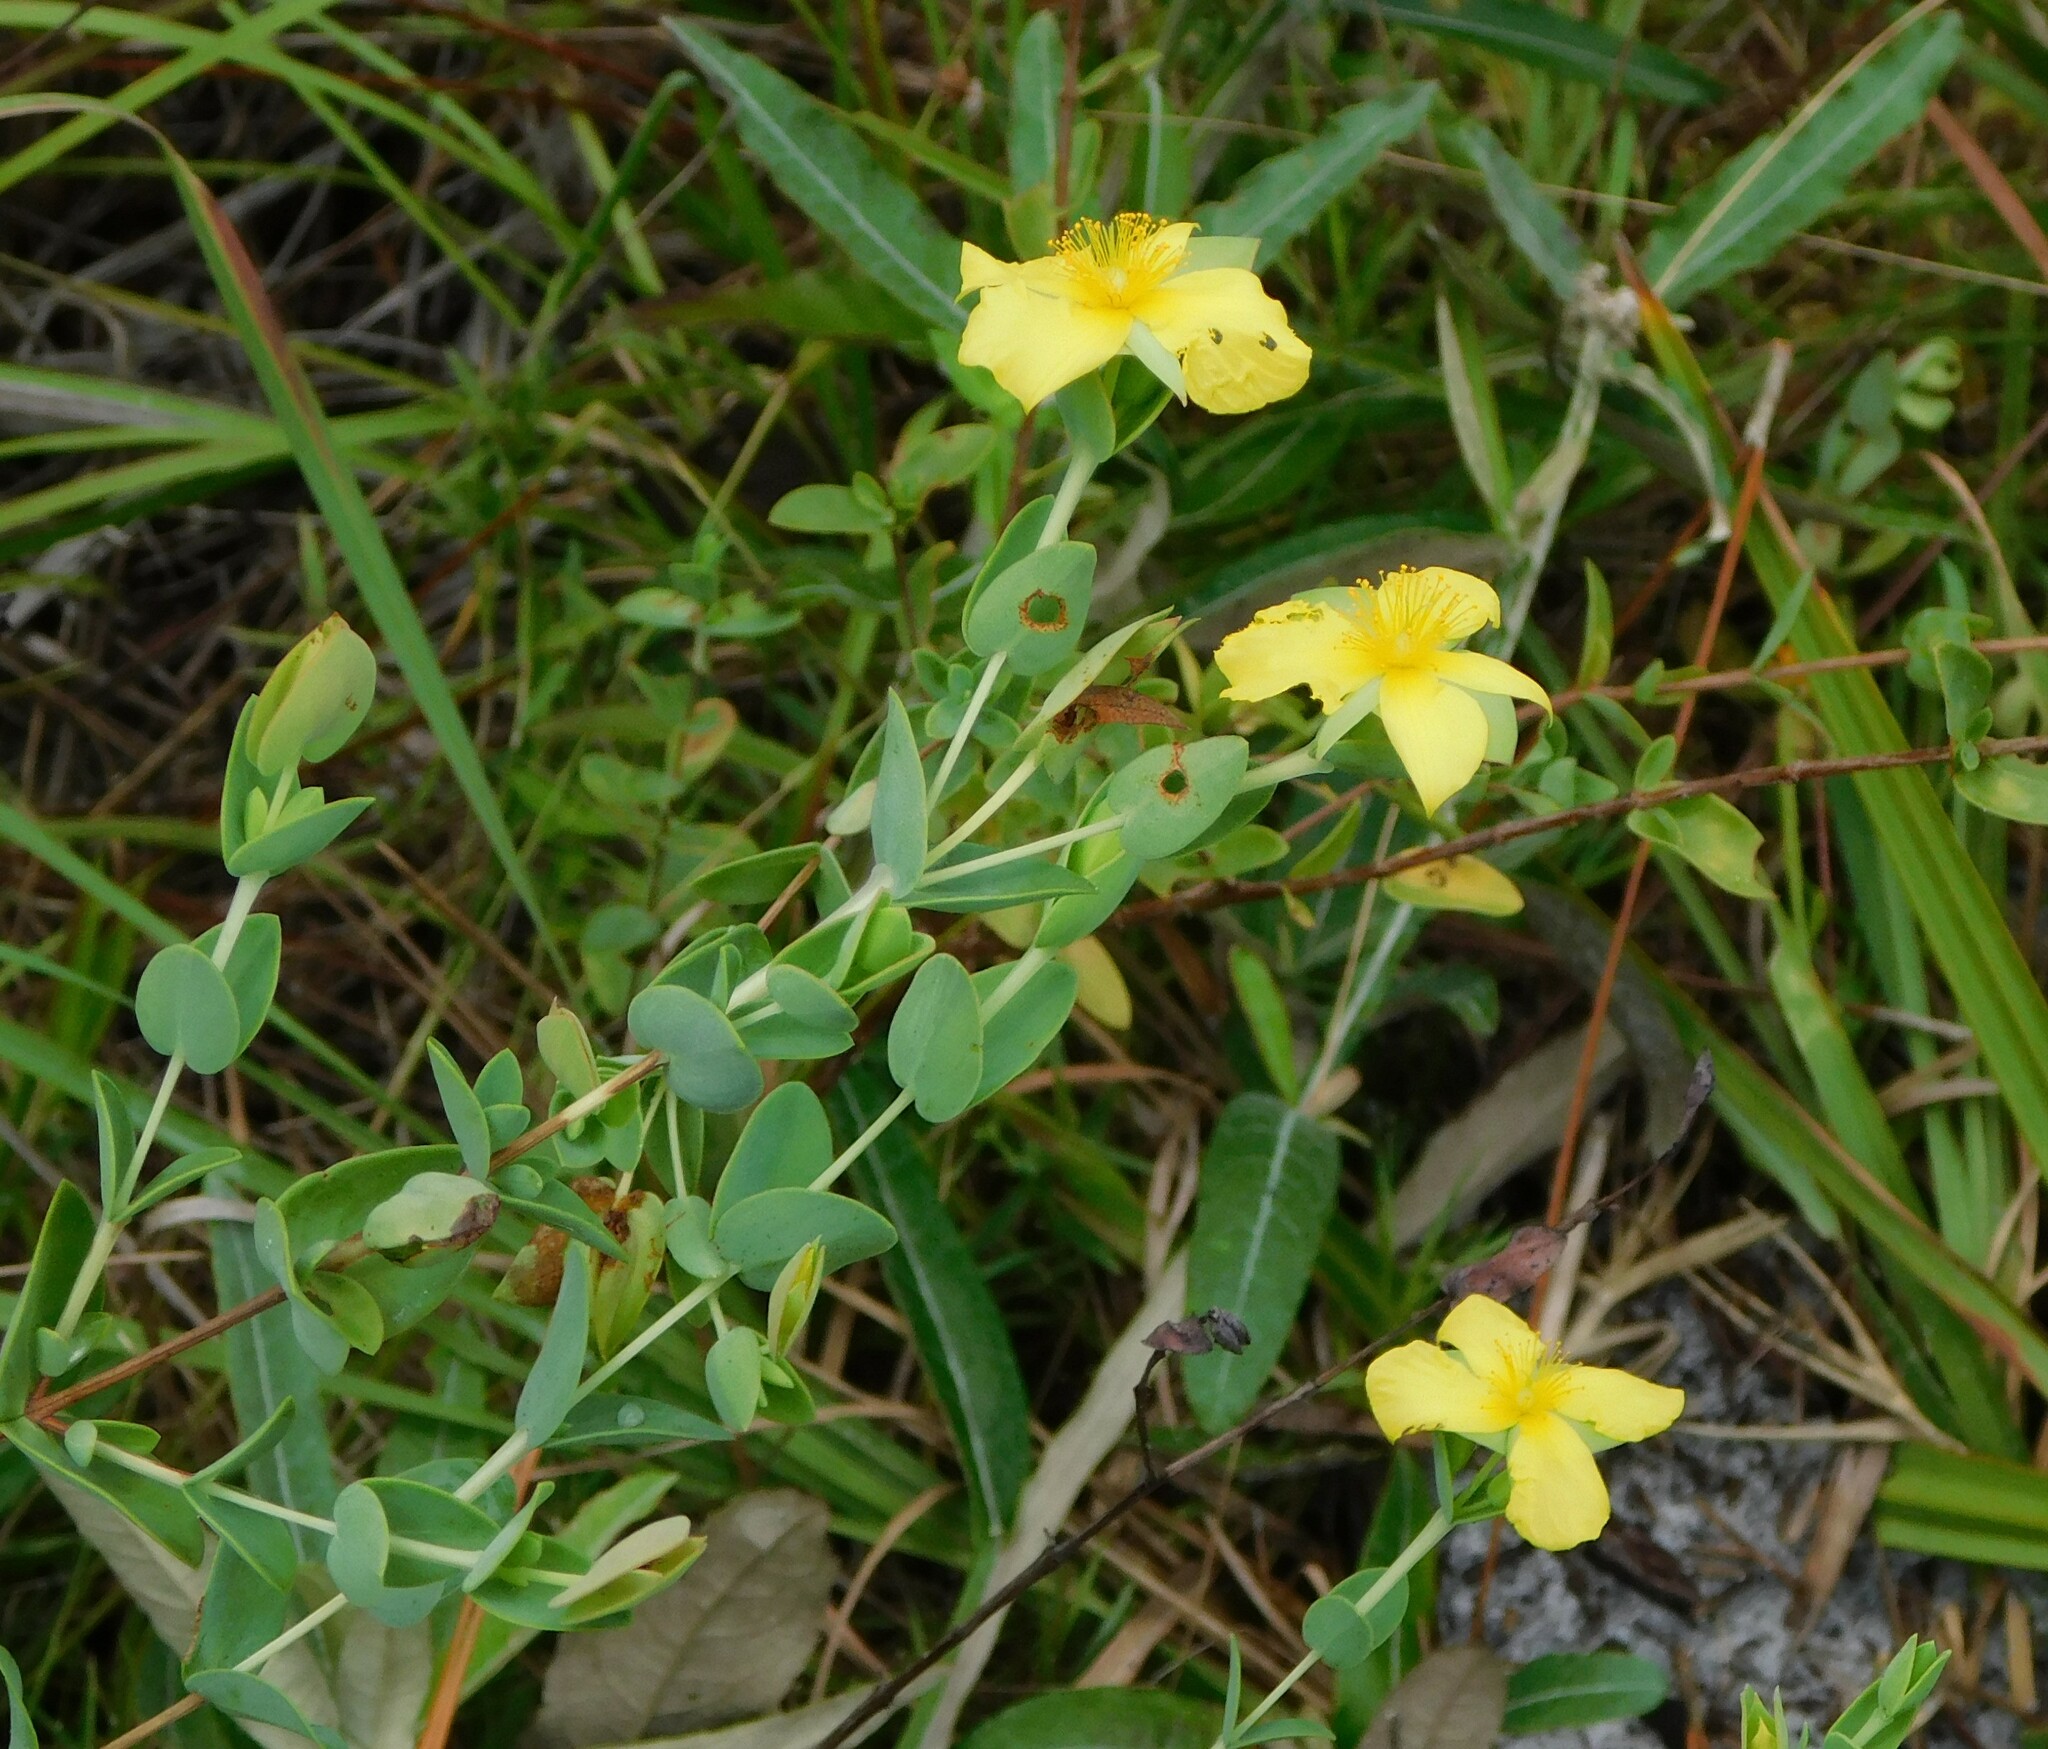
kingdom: Plantae
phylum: Tracheophyta
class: Magnoliopsida
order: Malpighiales
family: Hypericaceae
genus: Hypericum
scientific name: Hypericum tetrapetalum
